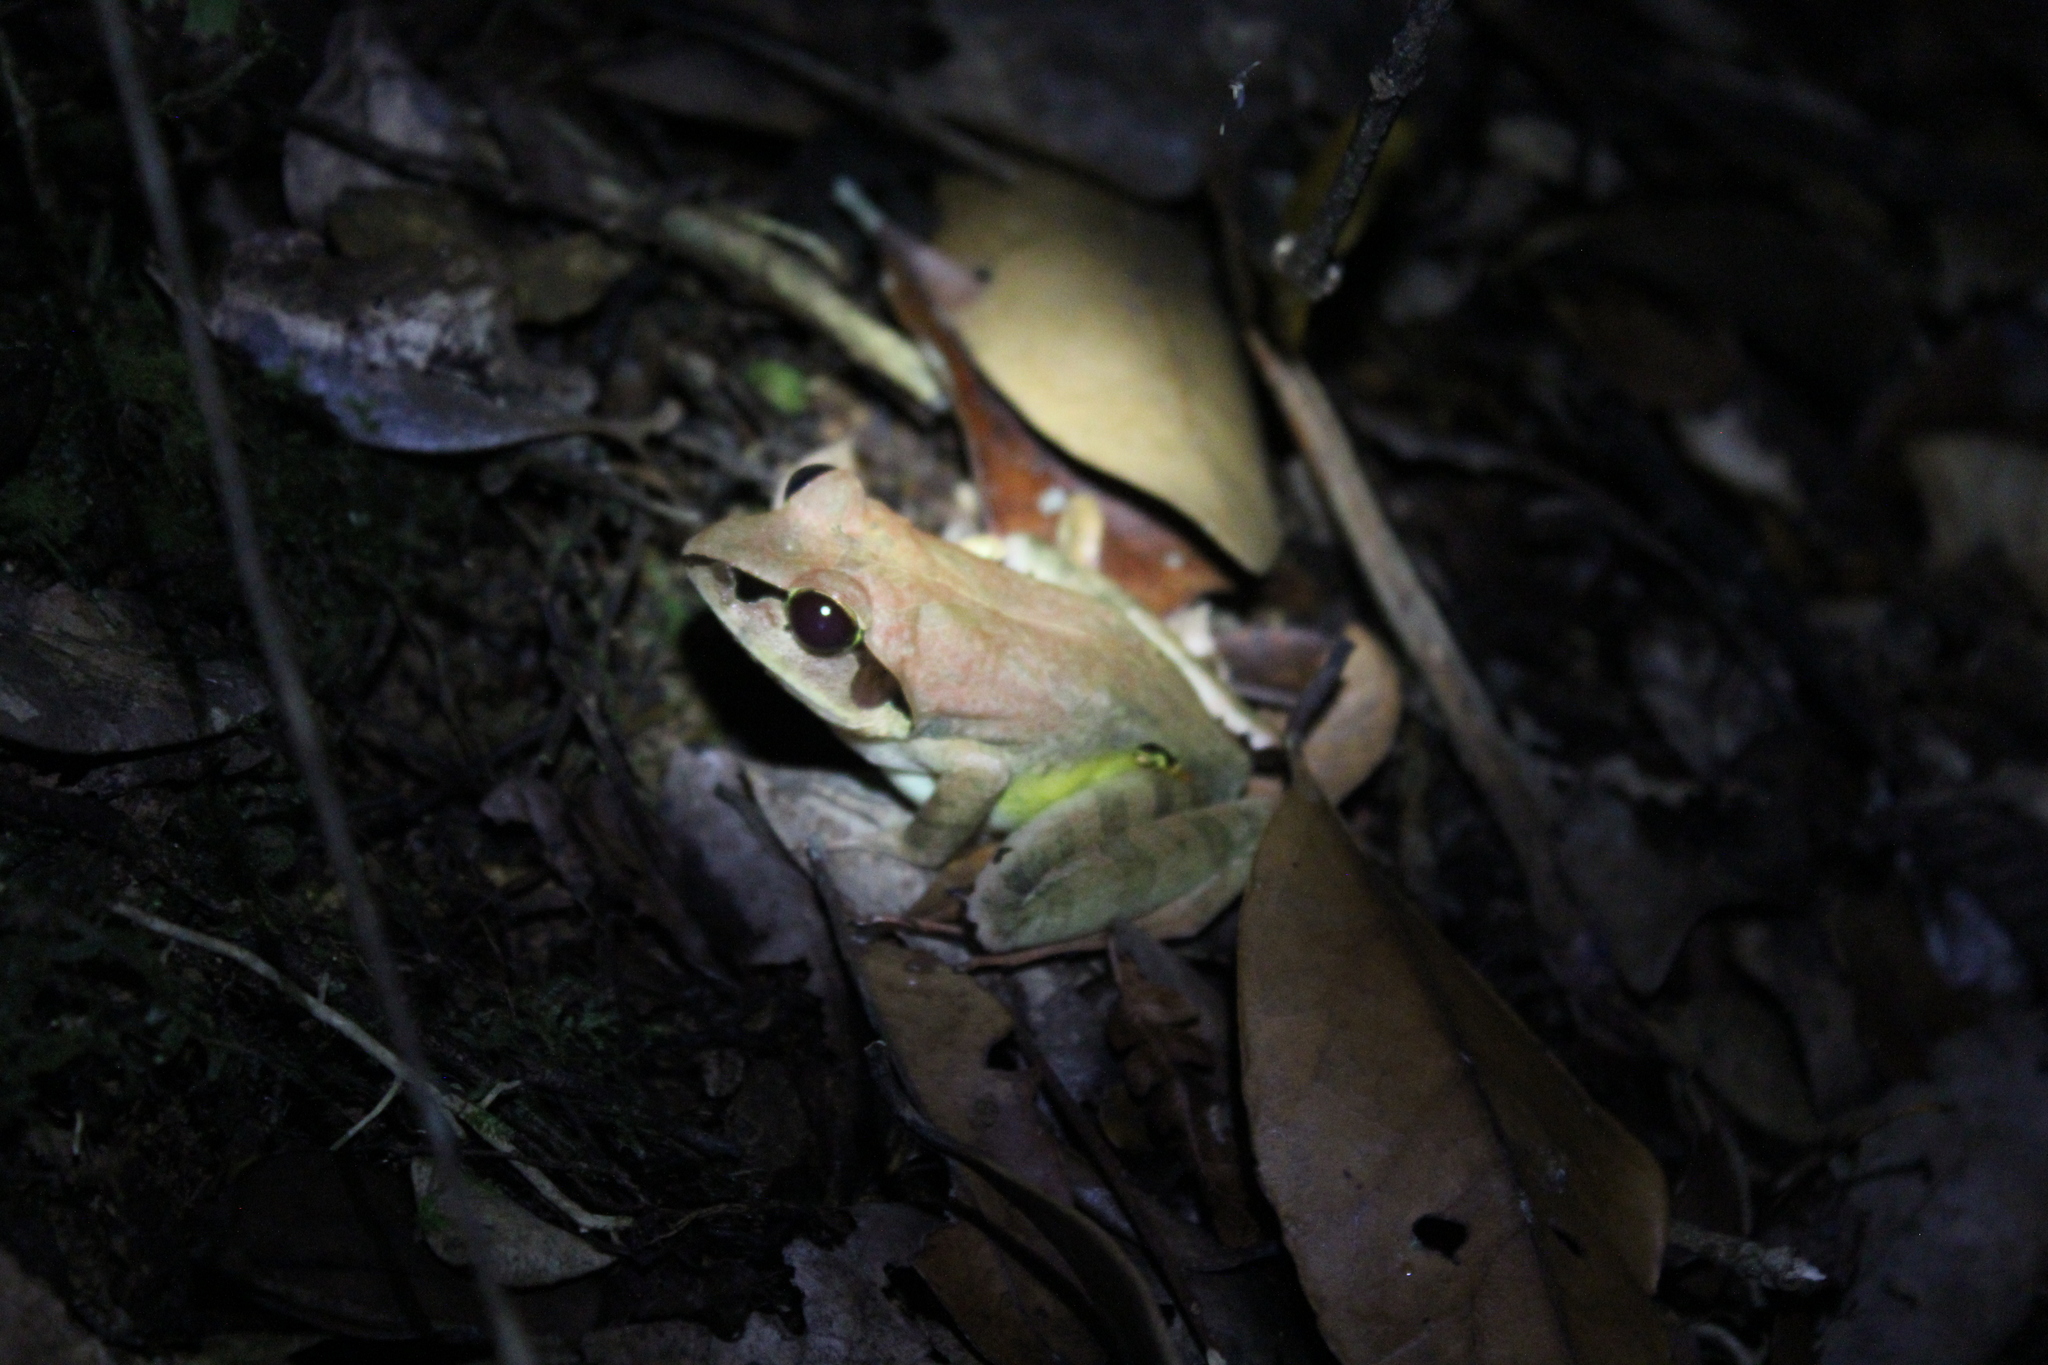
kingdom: Animalia
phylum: Chordata
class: Amphibia
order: Anura
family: Mantellidae
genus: Aglyptodactylus
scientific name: Aglyptodactylus madagascariensis
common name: Madagascar jumping frog
